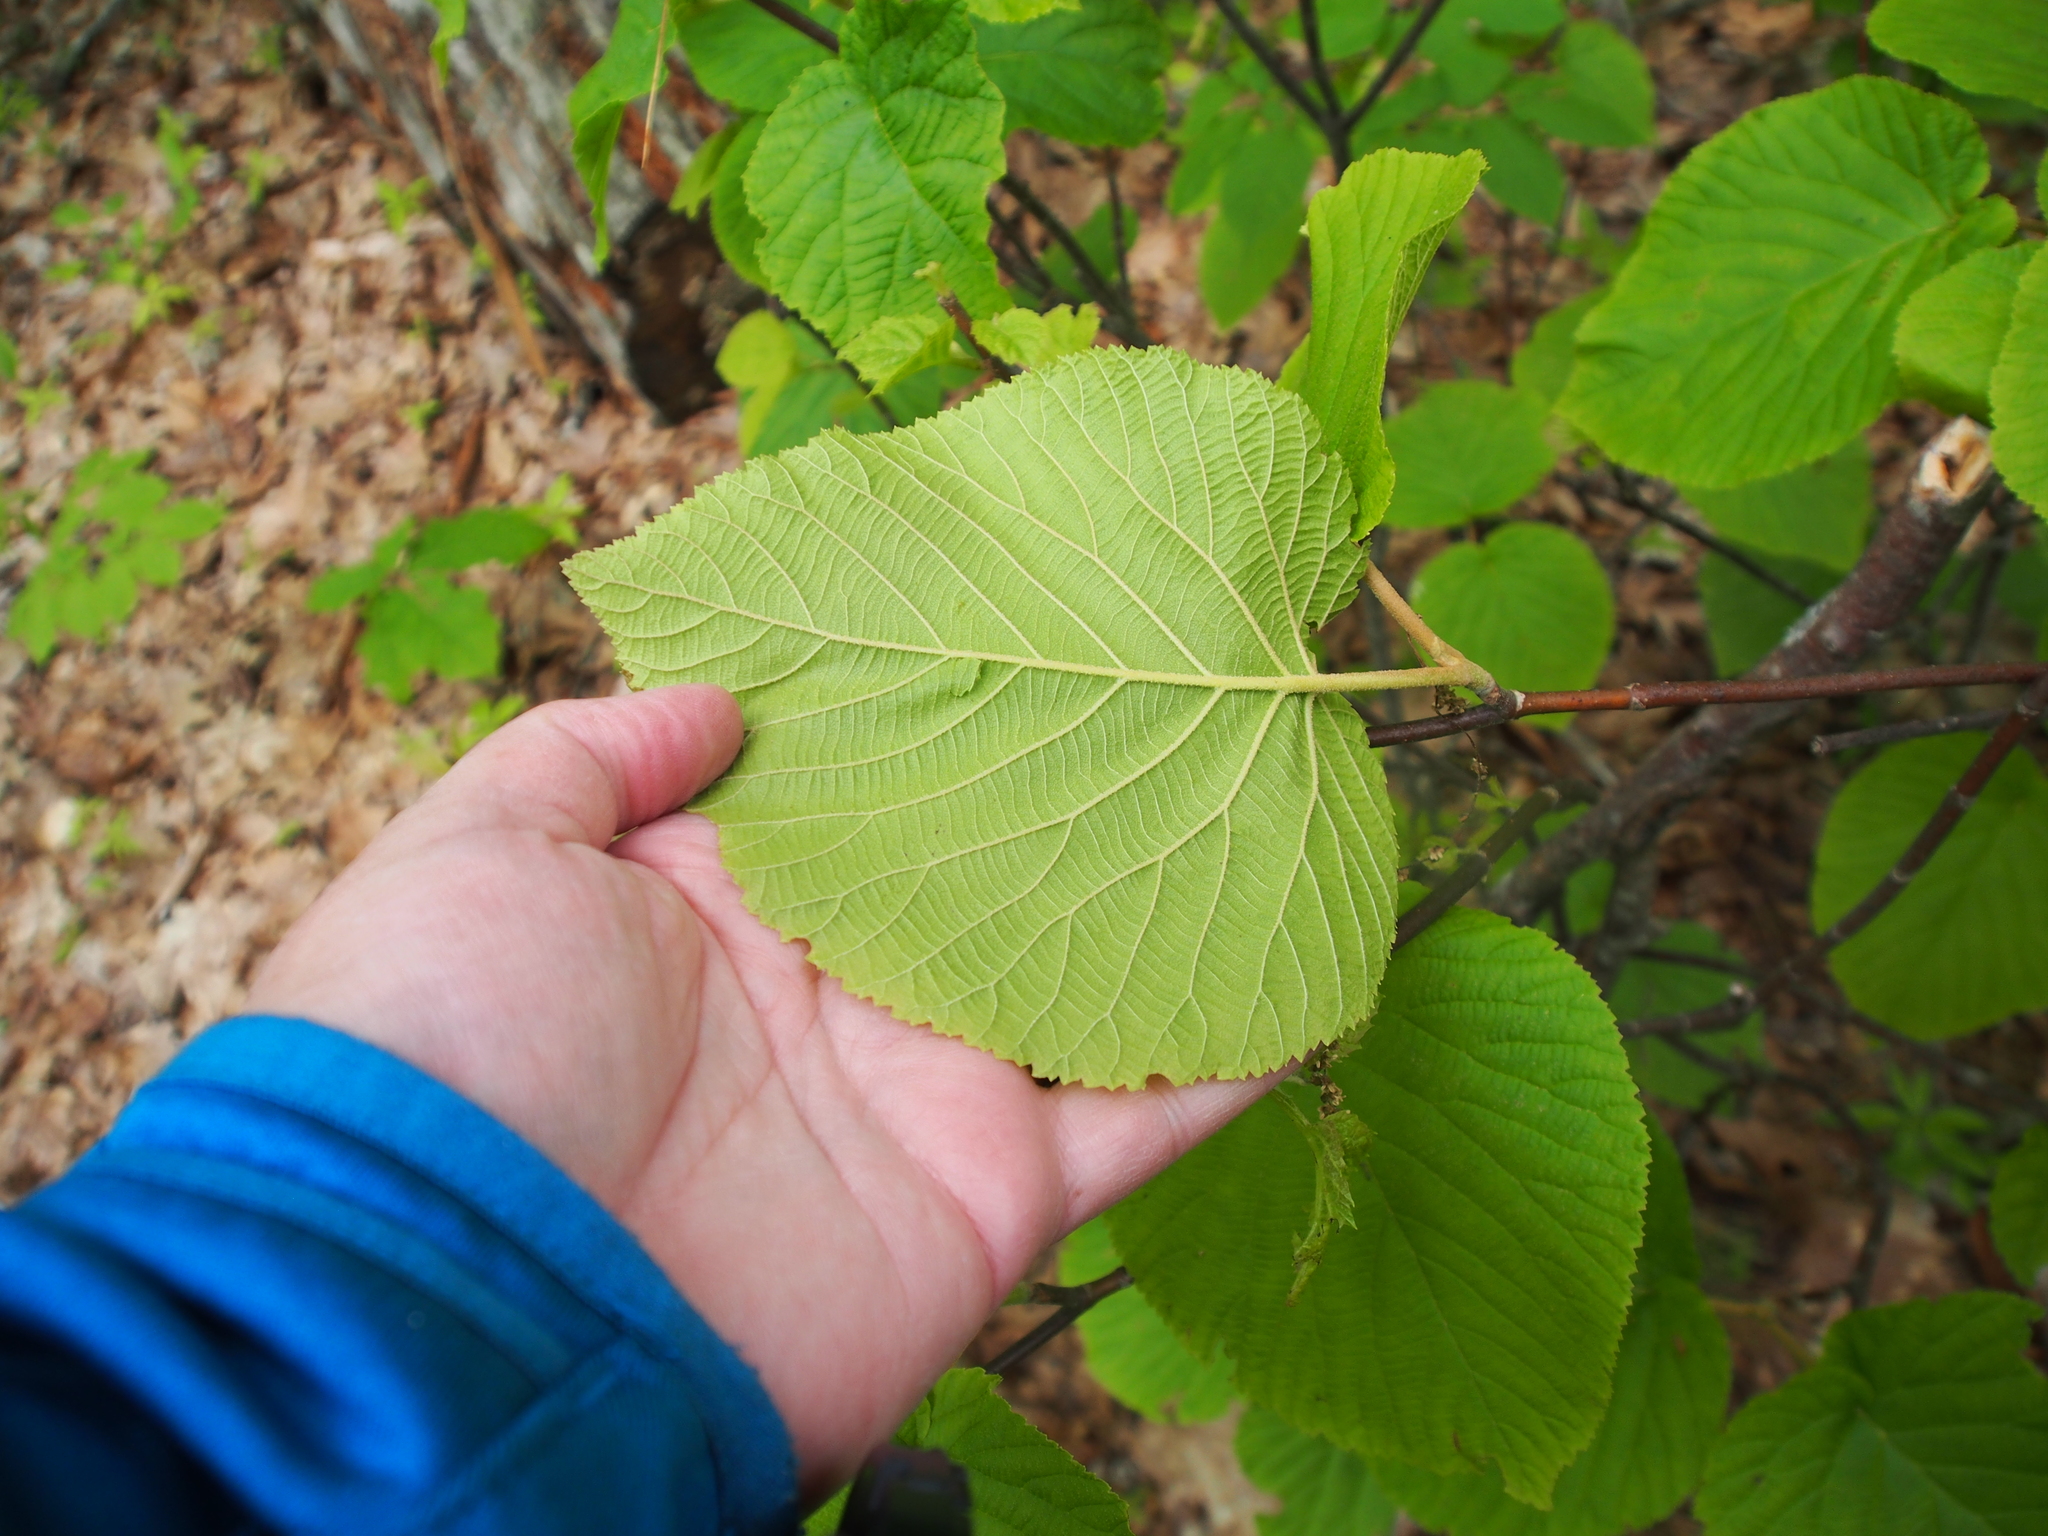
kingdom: Plantae
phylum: Tracheophyta
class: Magnoliopsida
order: Dipsacales
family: Viburnaceae
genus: Viburnum
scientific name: Viburnum lantanoides
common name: Hobblebush
